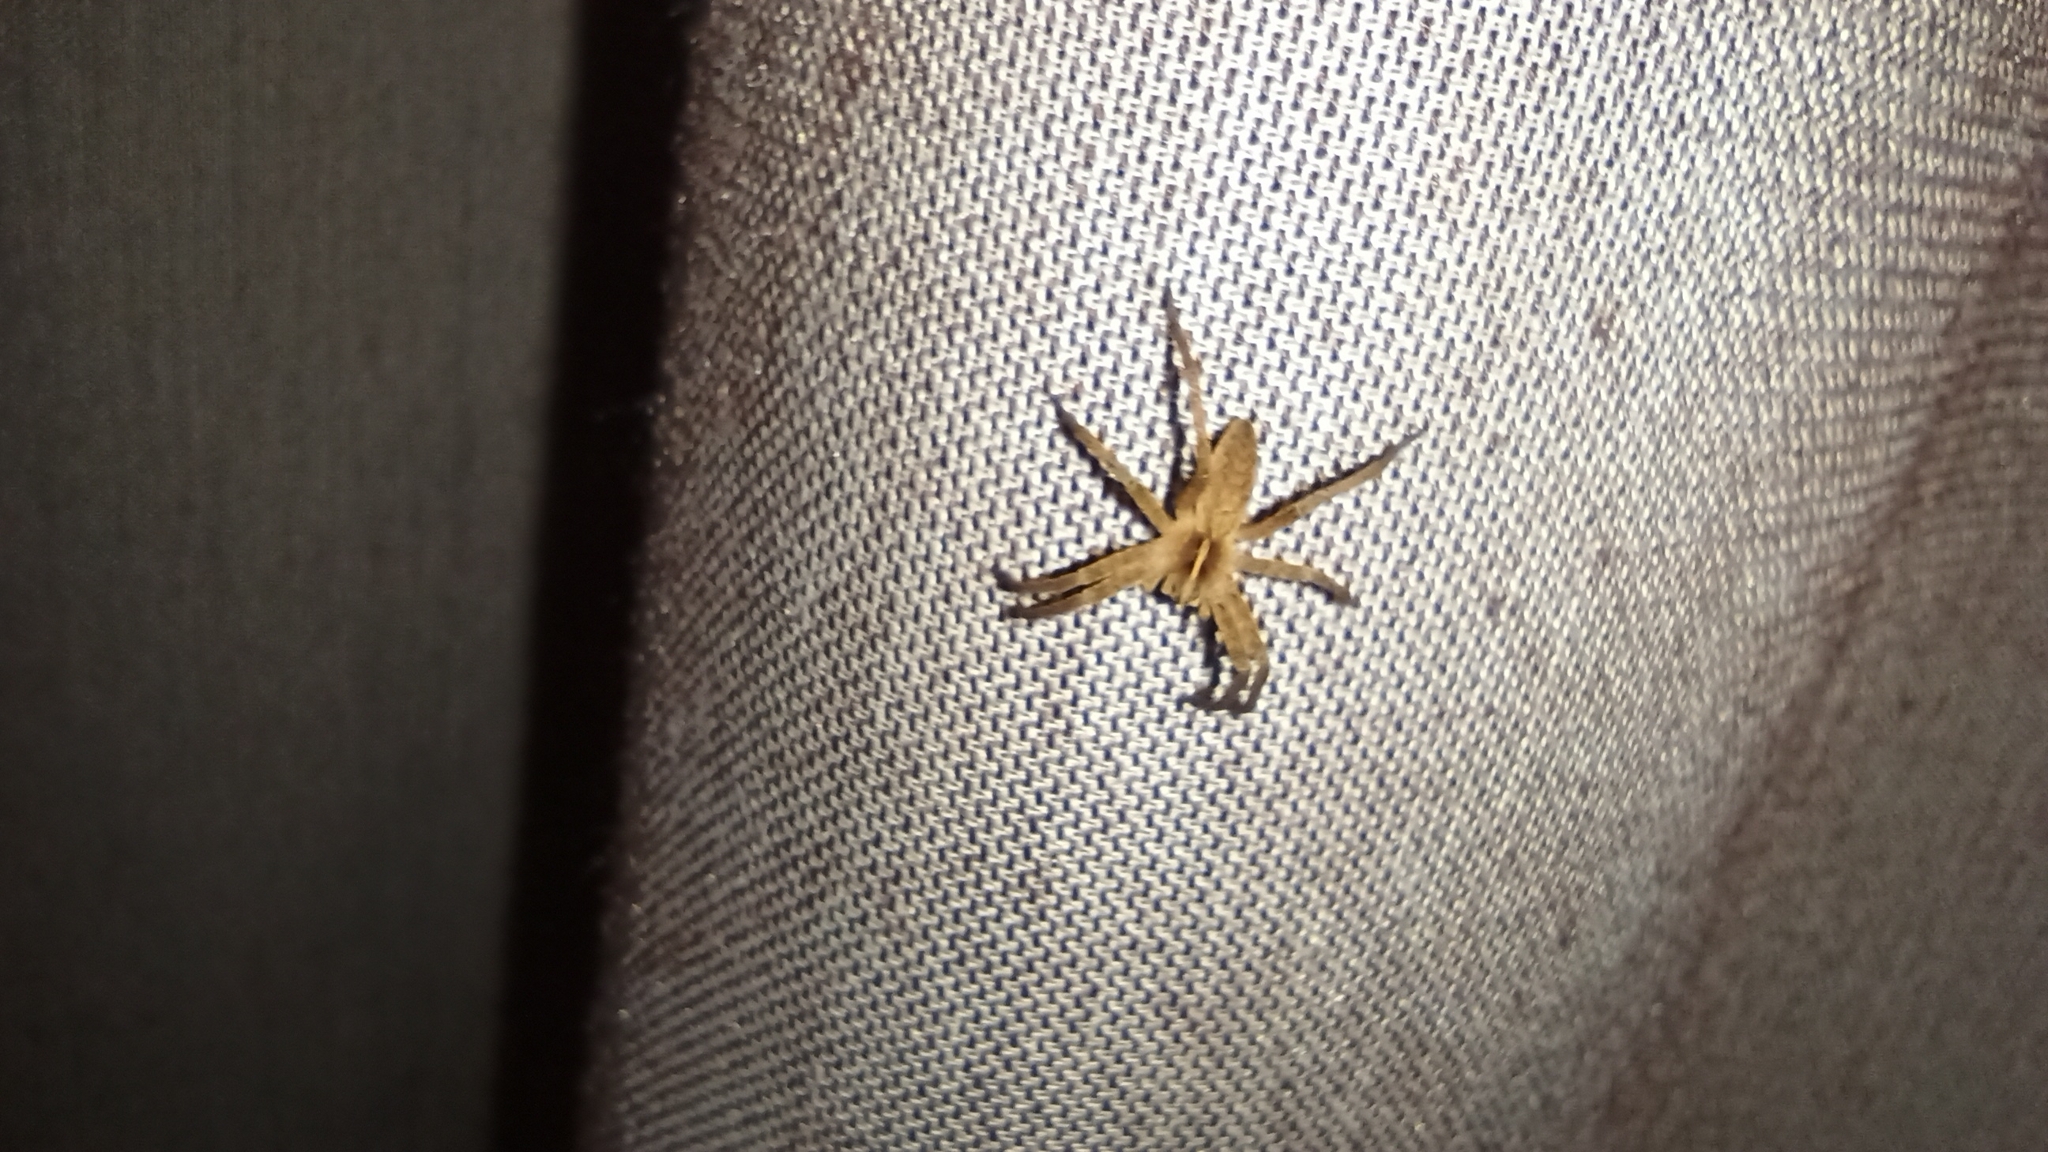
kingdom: Animalia
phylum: Arthropoda
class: Arachnida
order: Araneae
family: Pisauridae
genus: Pisaura
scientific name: Pisaura mirabilis
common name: Tent spider
